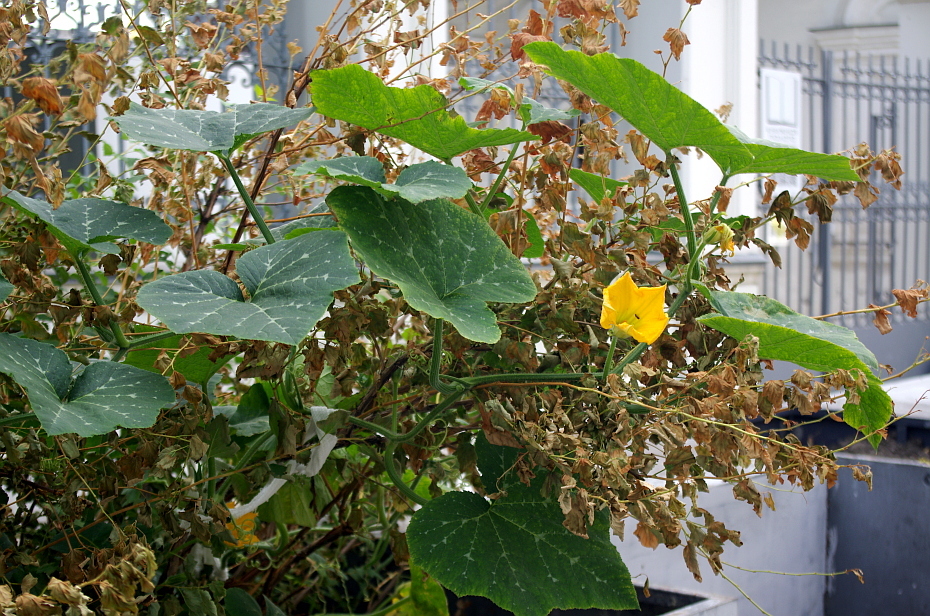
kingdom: Plantae
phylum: Tracheophyta
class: Magnoliopsida
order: Cucurbitales
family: Cucurbitaceae
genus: Cucurbita
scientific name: Cucurbita moschata
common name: Squash / pumpkin
